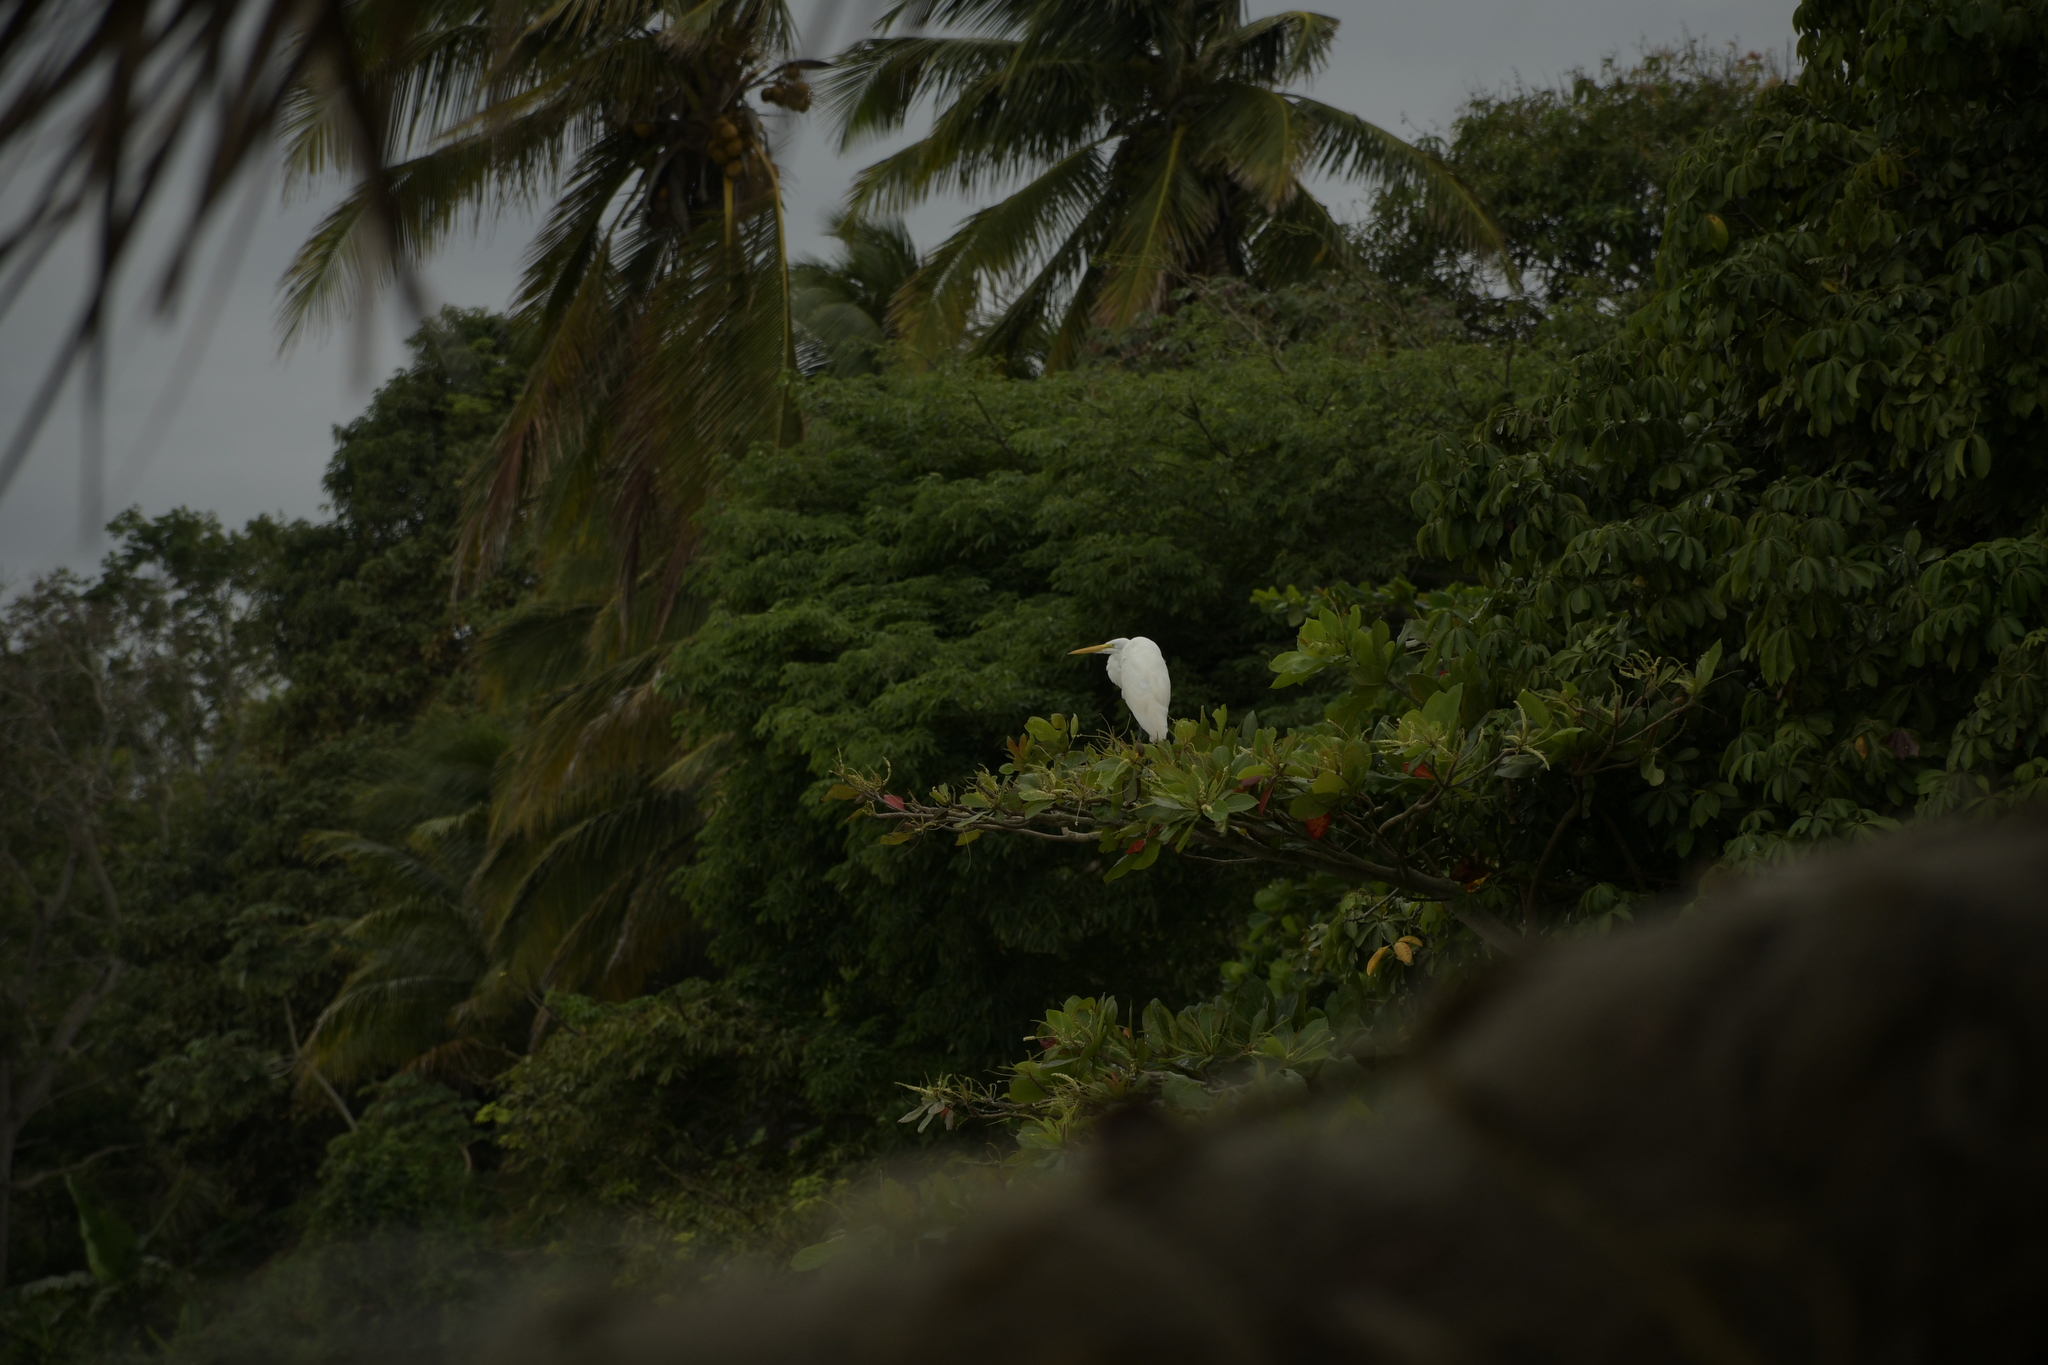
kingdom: Animalia
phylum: Chordata
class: Aves
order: Pelecaniformes
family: Ardeidae
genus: Ardea
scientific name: Ardea alba
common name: Great egret
